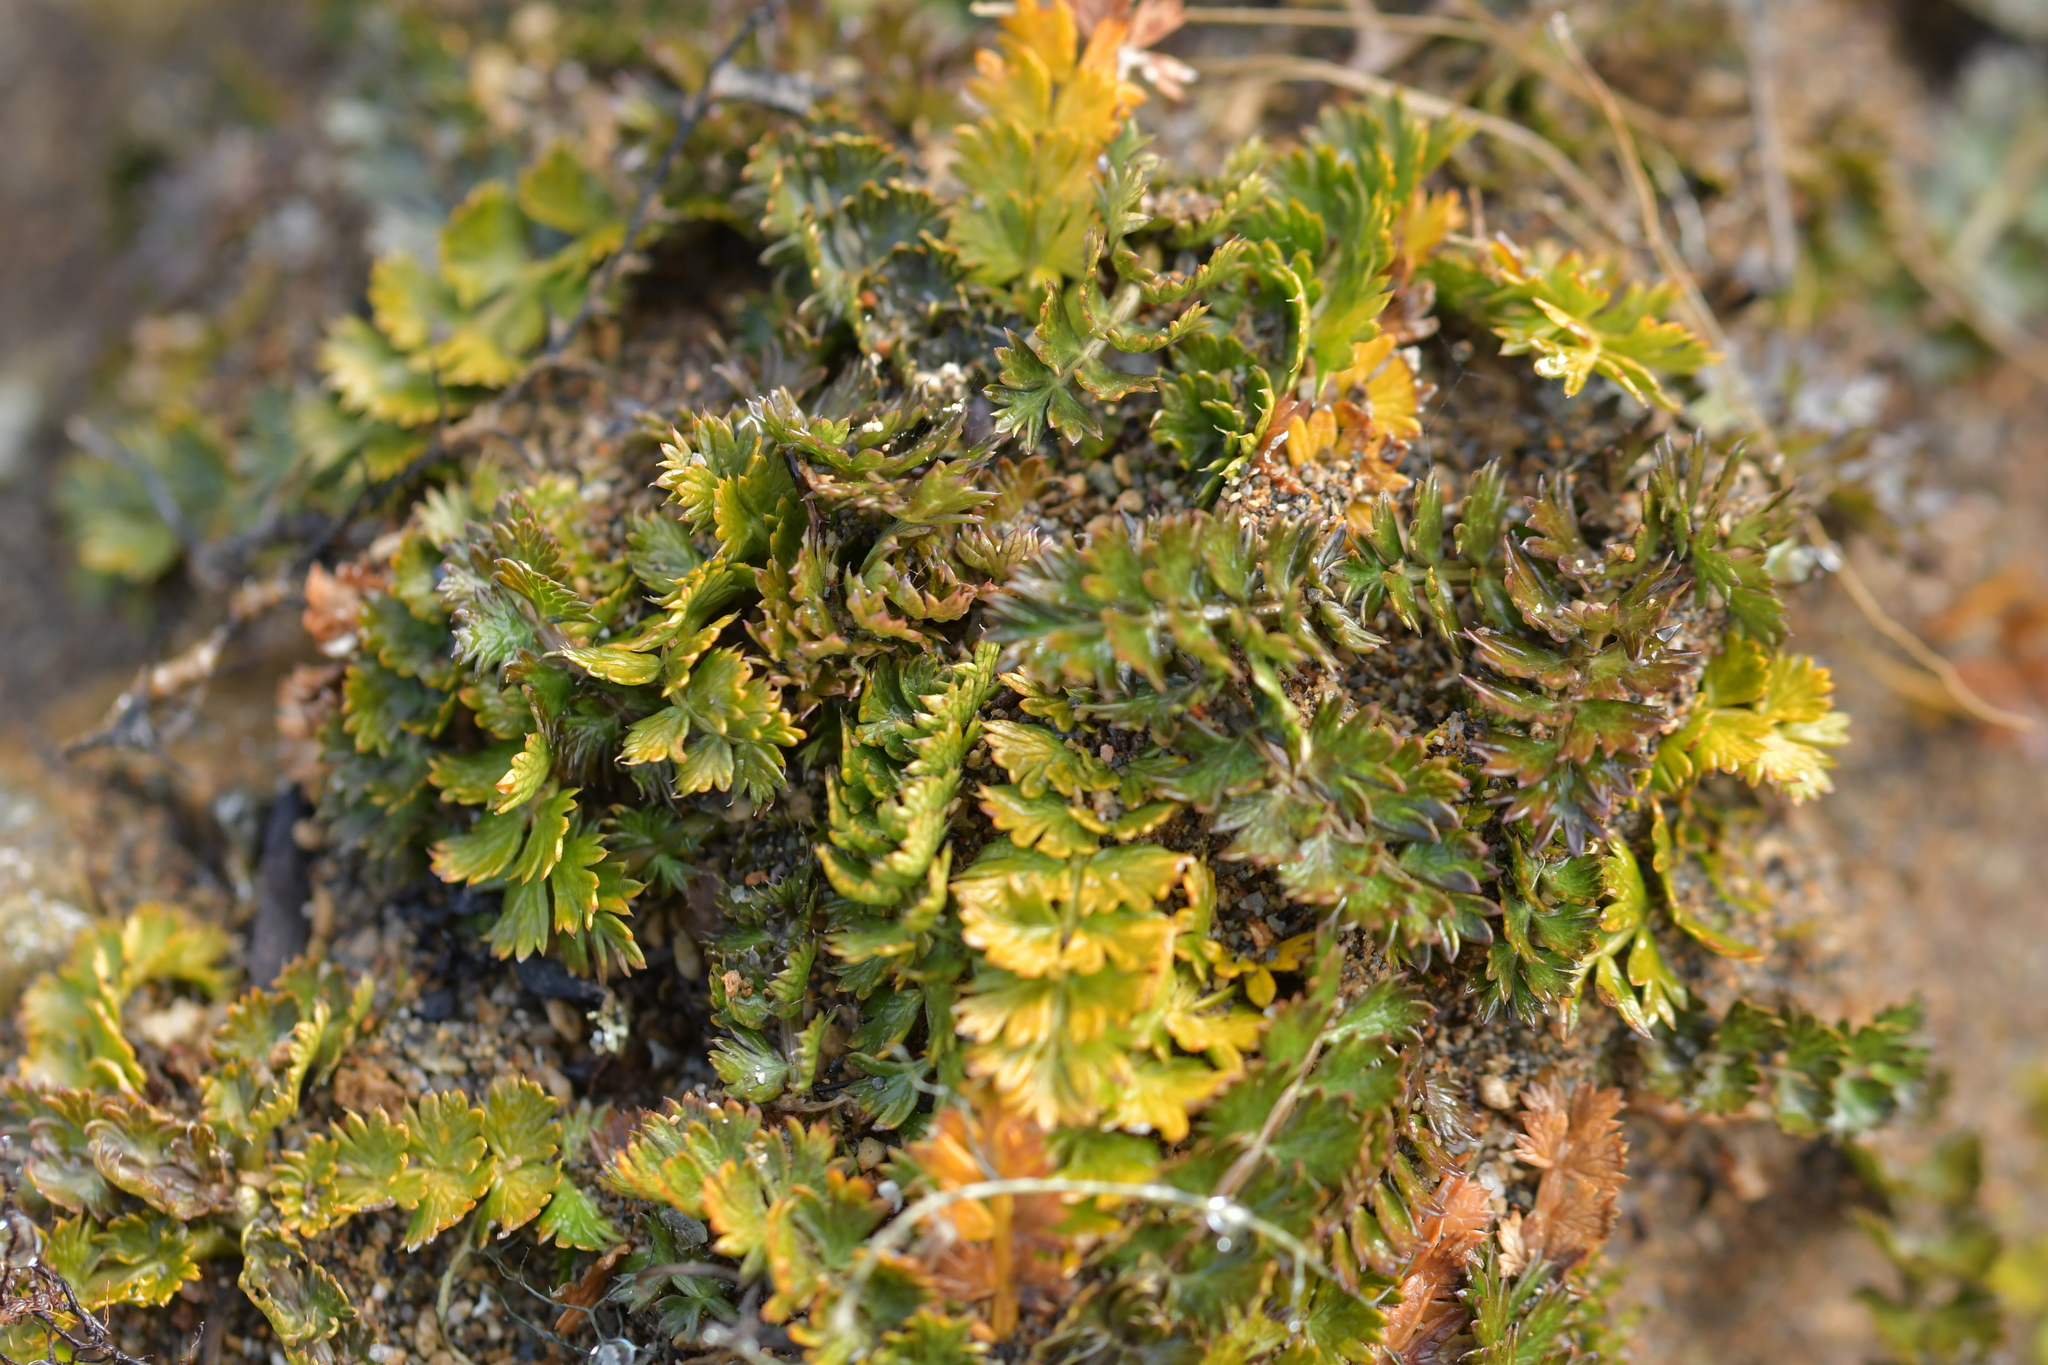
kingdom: Plantae
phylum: Tracheophyta
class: Magnoliopsida
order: Apiales
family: Apiaceae
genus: Anisotome
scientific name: Anisotome aromatica
